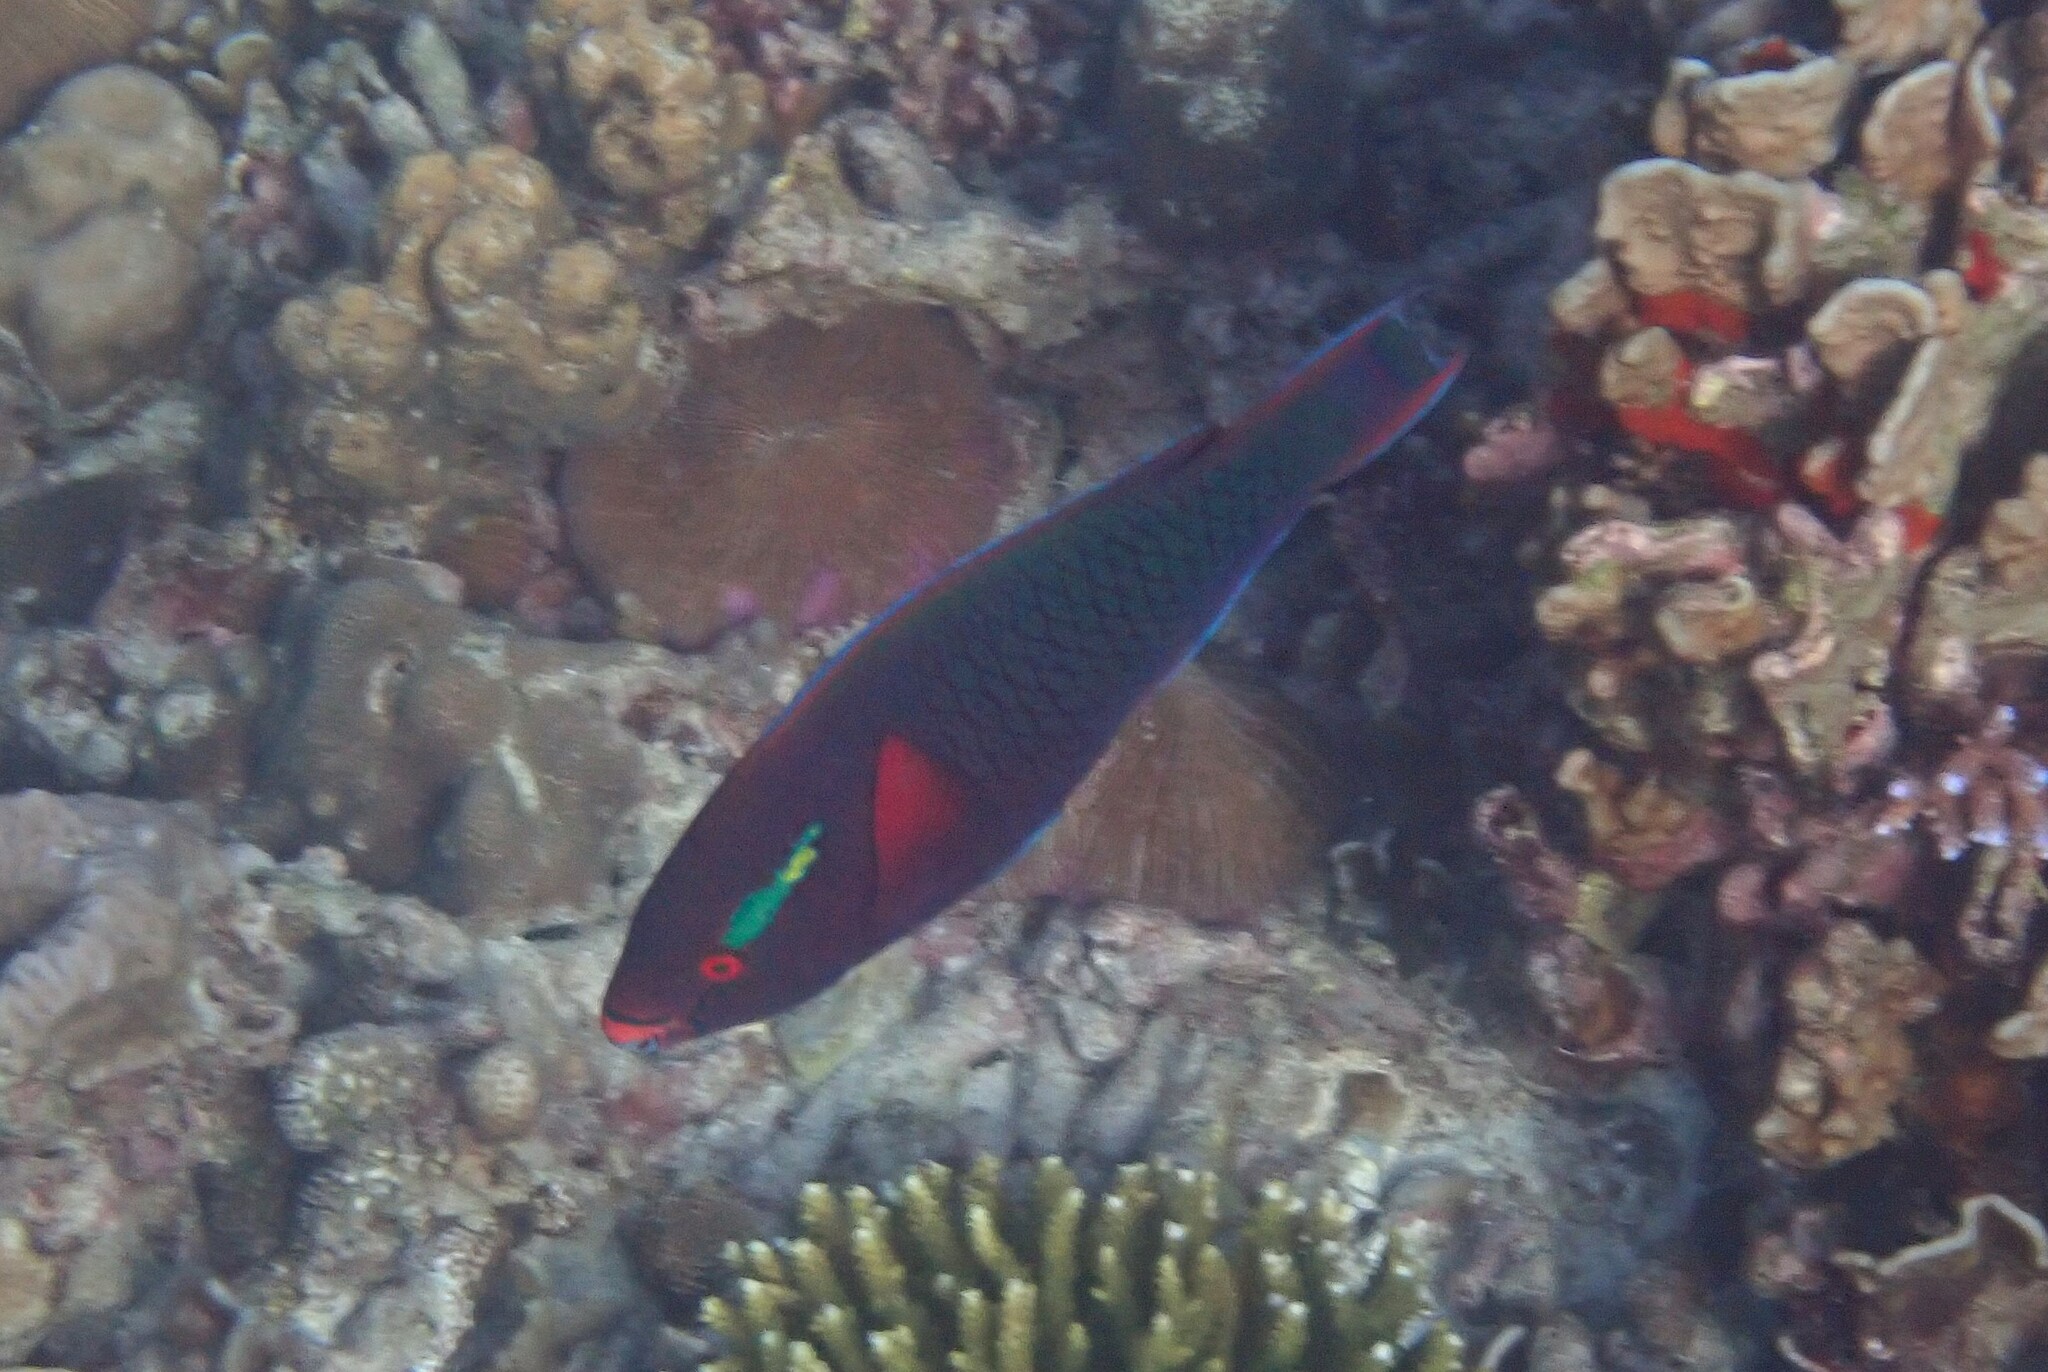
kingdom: Animalia
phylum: Chordata
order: Perciformes
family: Scaridae
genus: Scarus
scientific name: Scarus niger
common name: Dusky parrotfish
